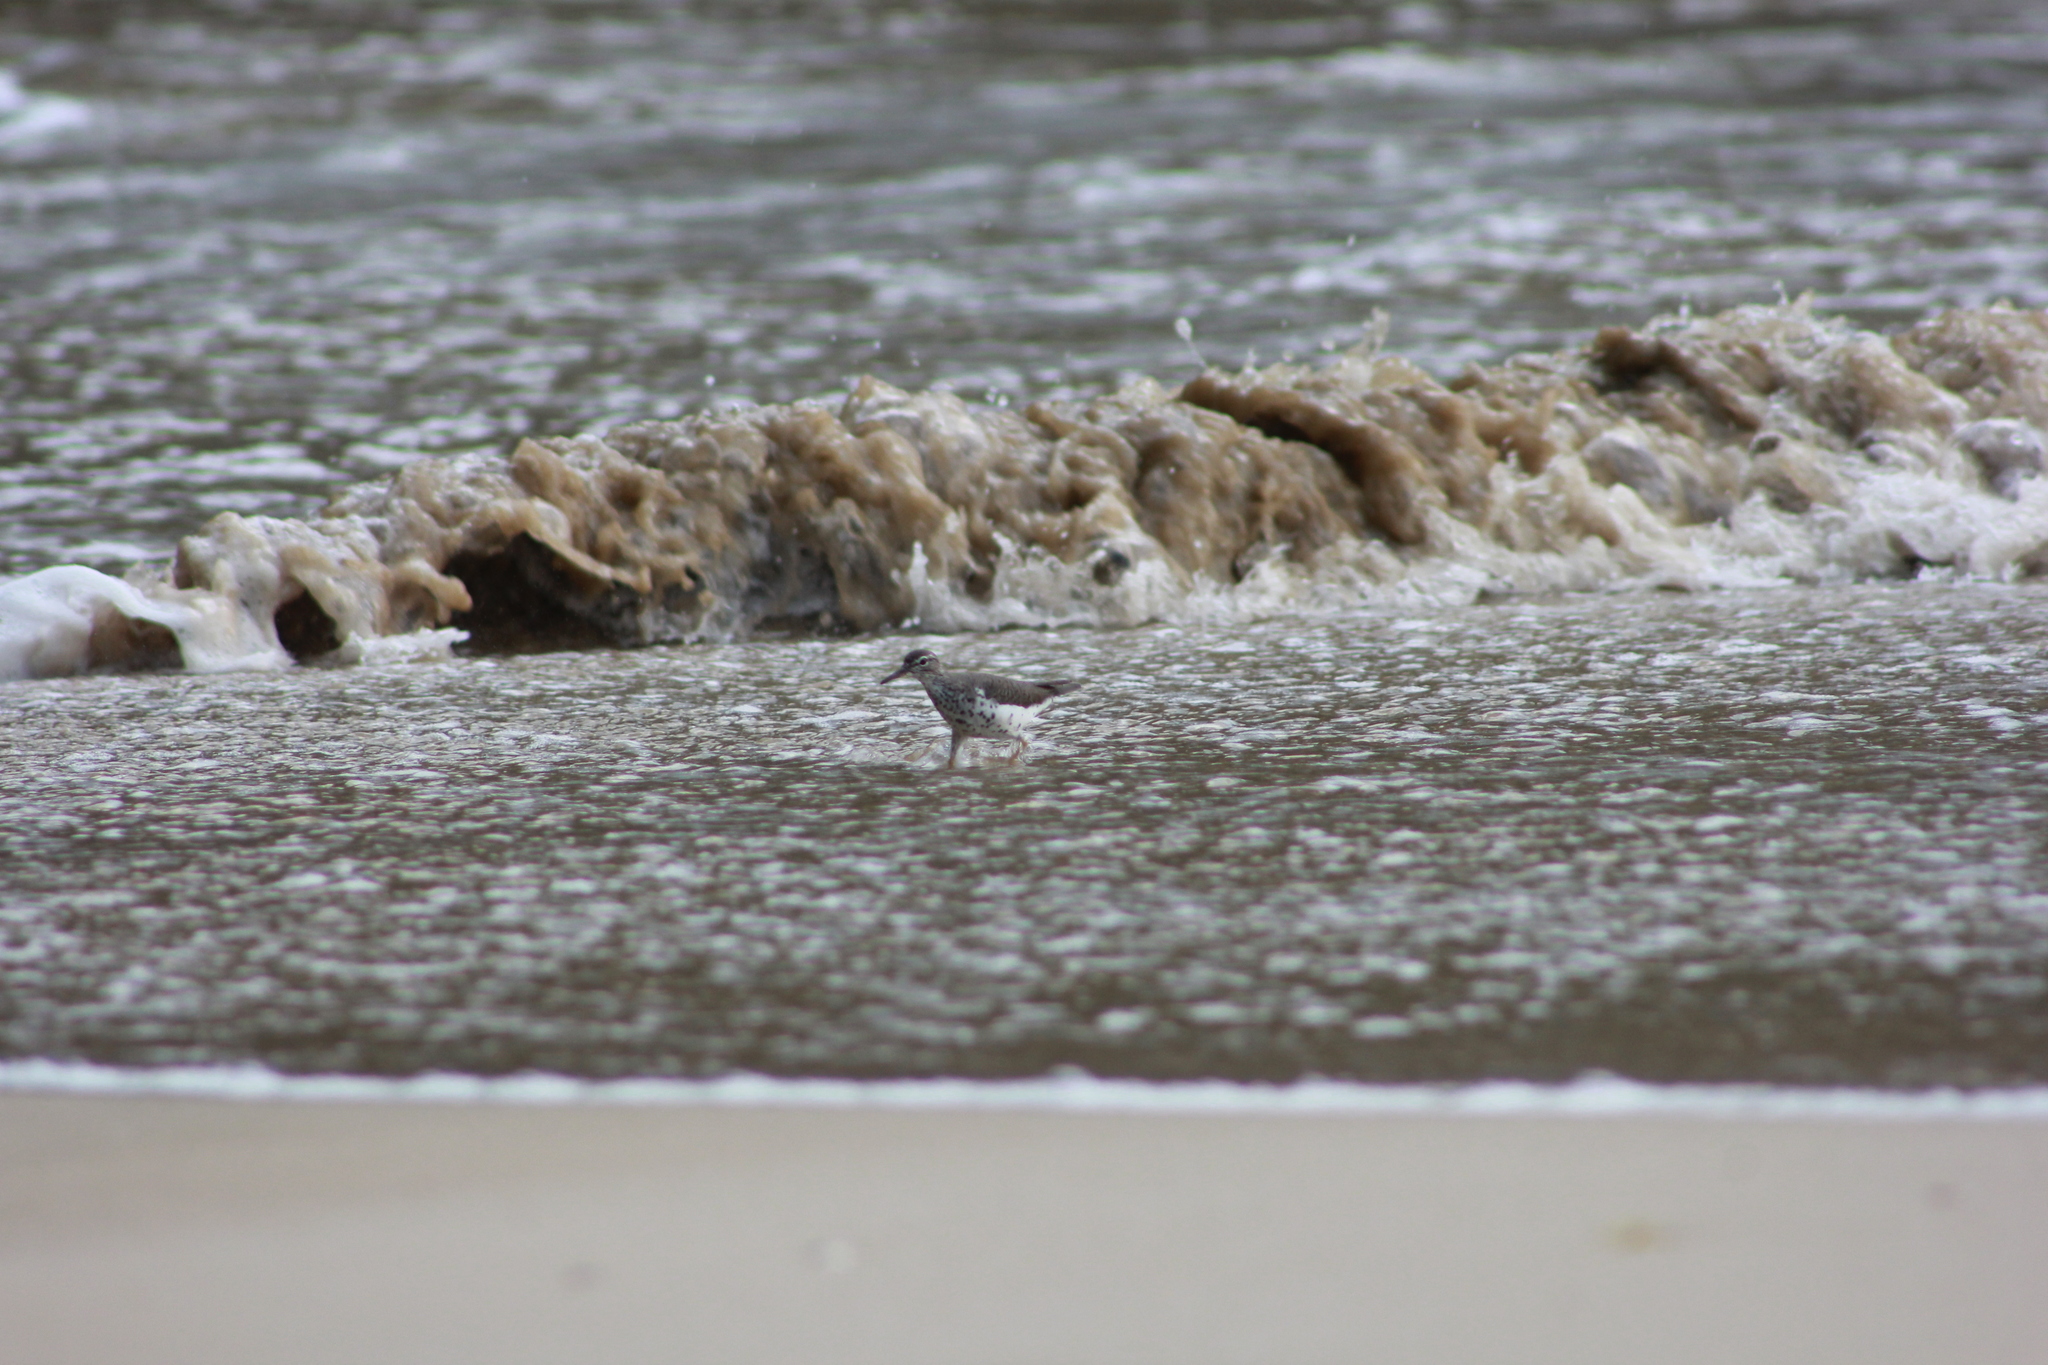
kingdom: Animalia
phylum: Chordata
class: Aves
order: Charadriiformes
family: Scolopacidae
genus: Actitis
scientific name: Actitis macularius
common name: Spotted sandpiper
